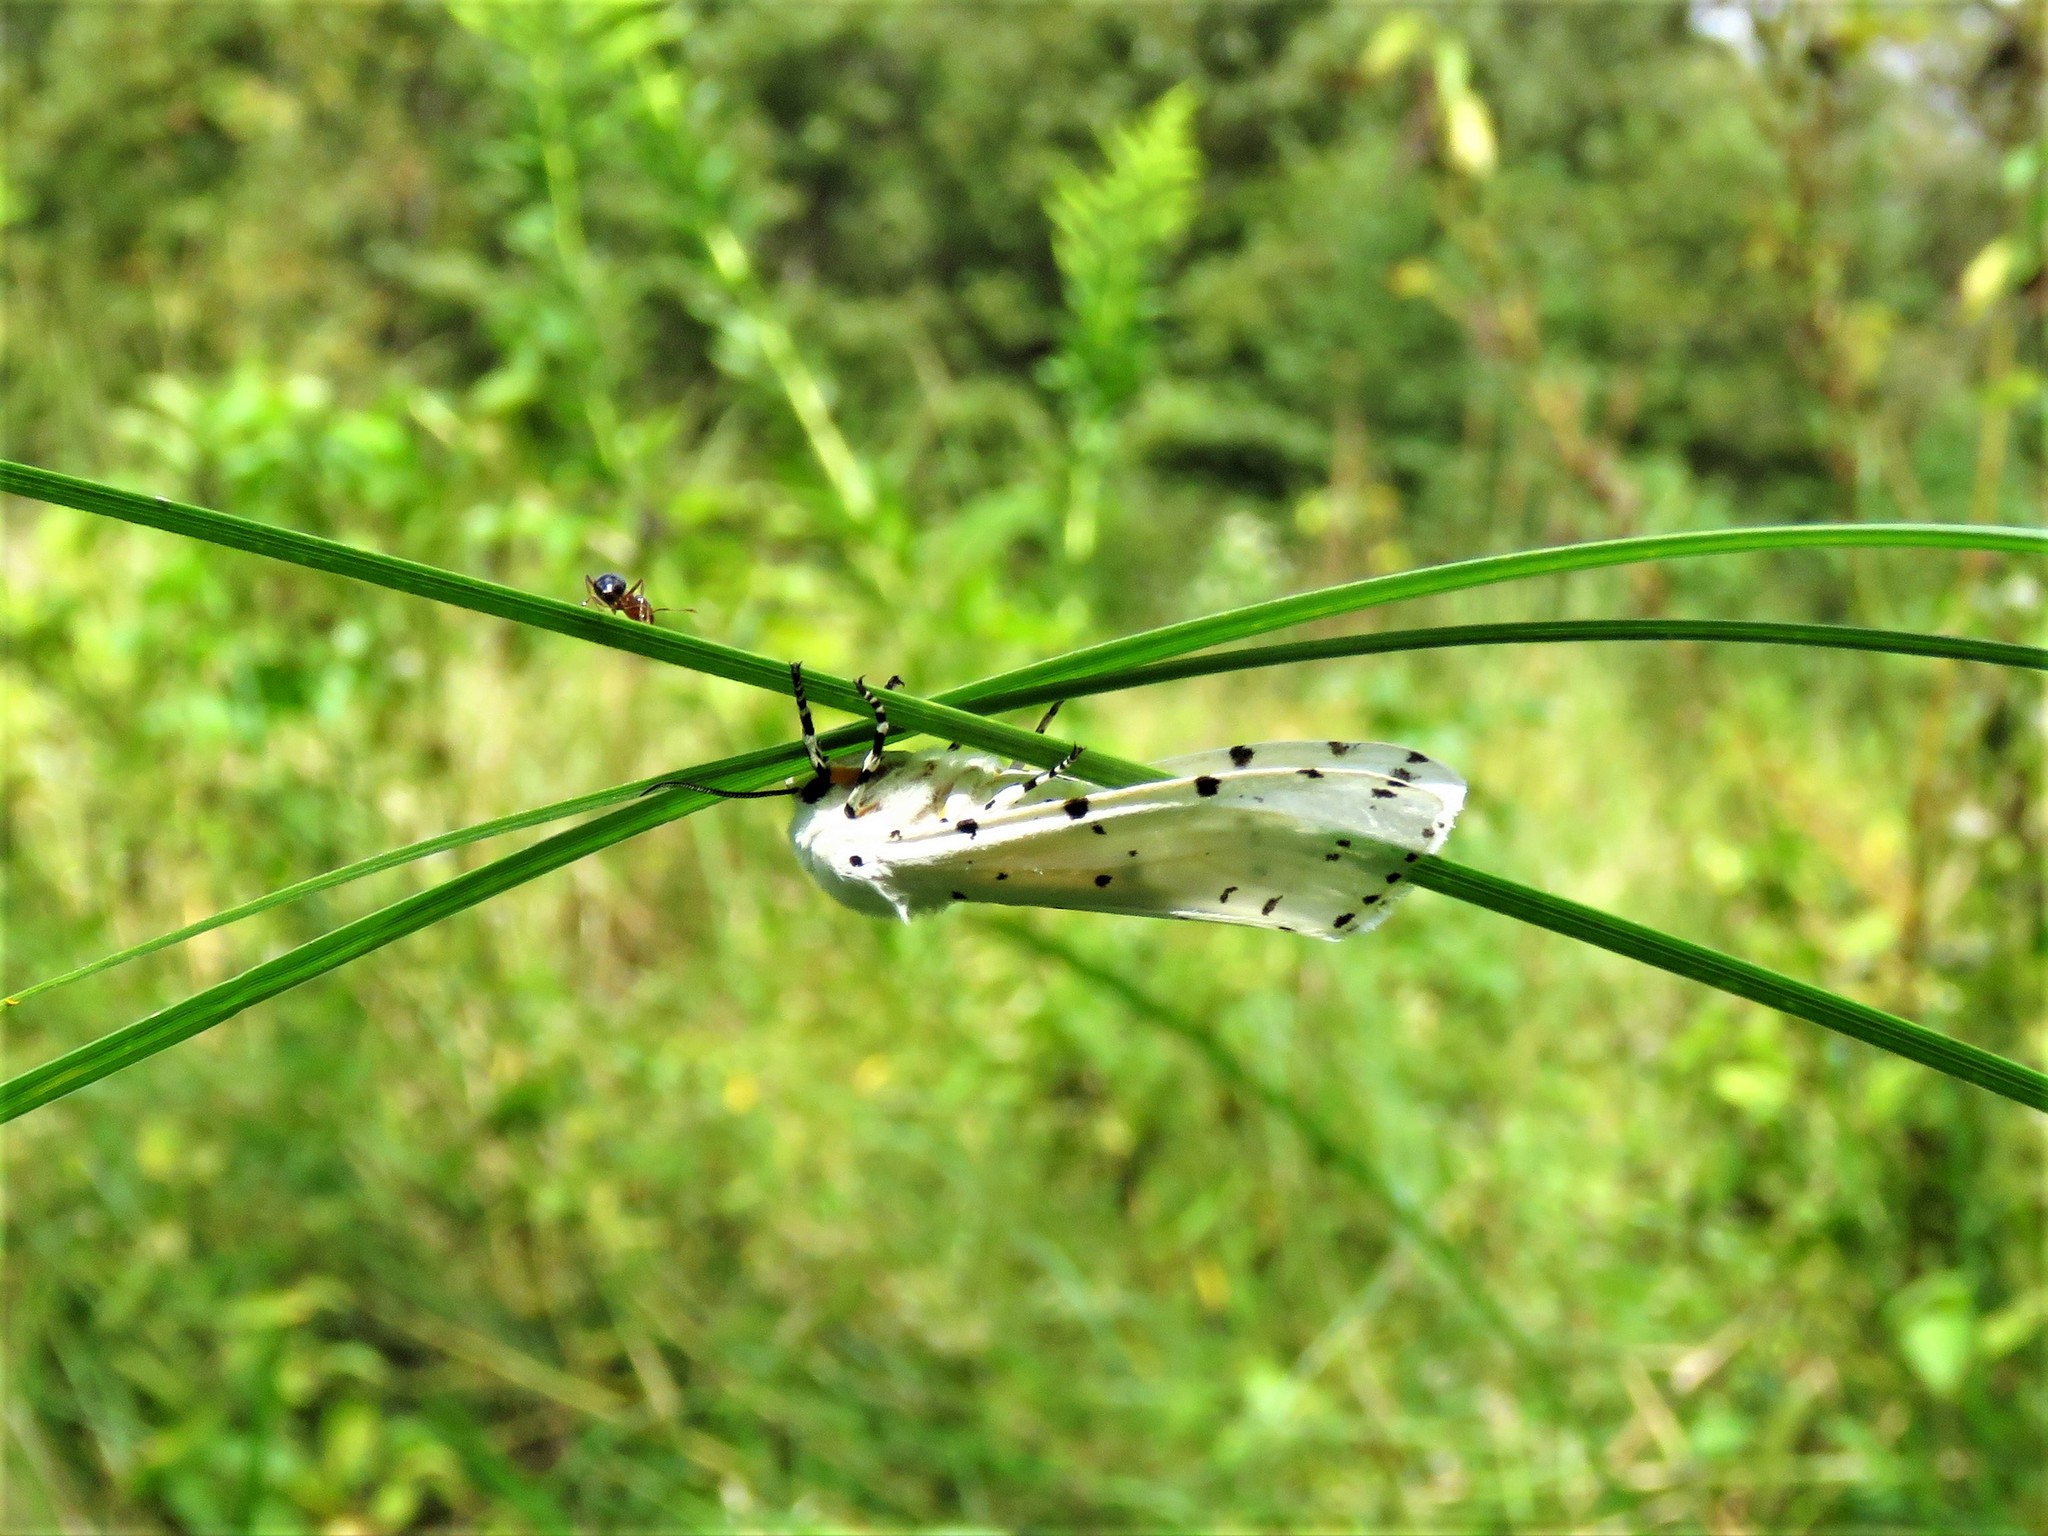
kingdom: Animalia
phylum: Arthropoda
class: Insecta
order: Lepidoptera
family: Erebidae
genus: Estigmene
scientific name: Estigmene acrea
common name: Salt marsh moth
